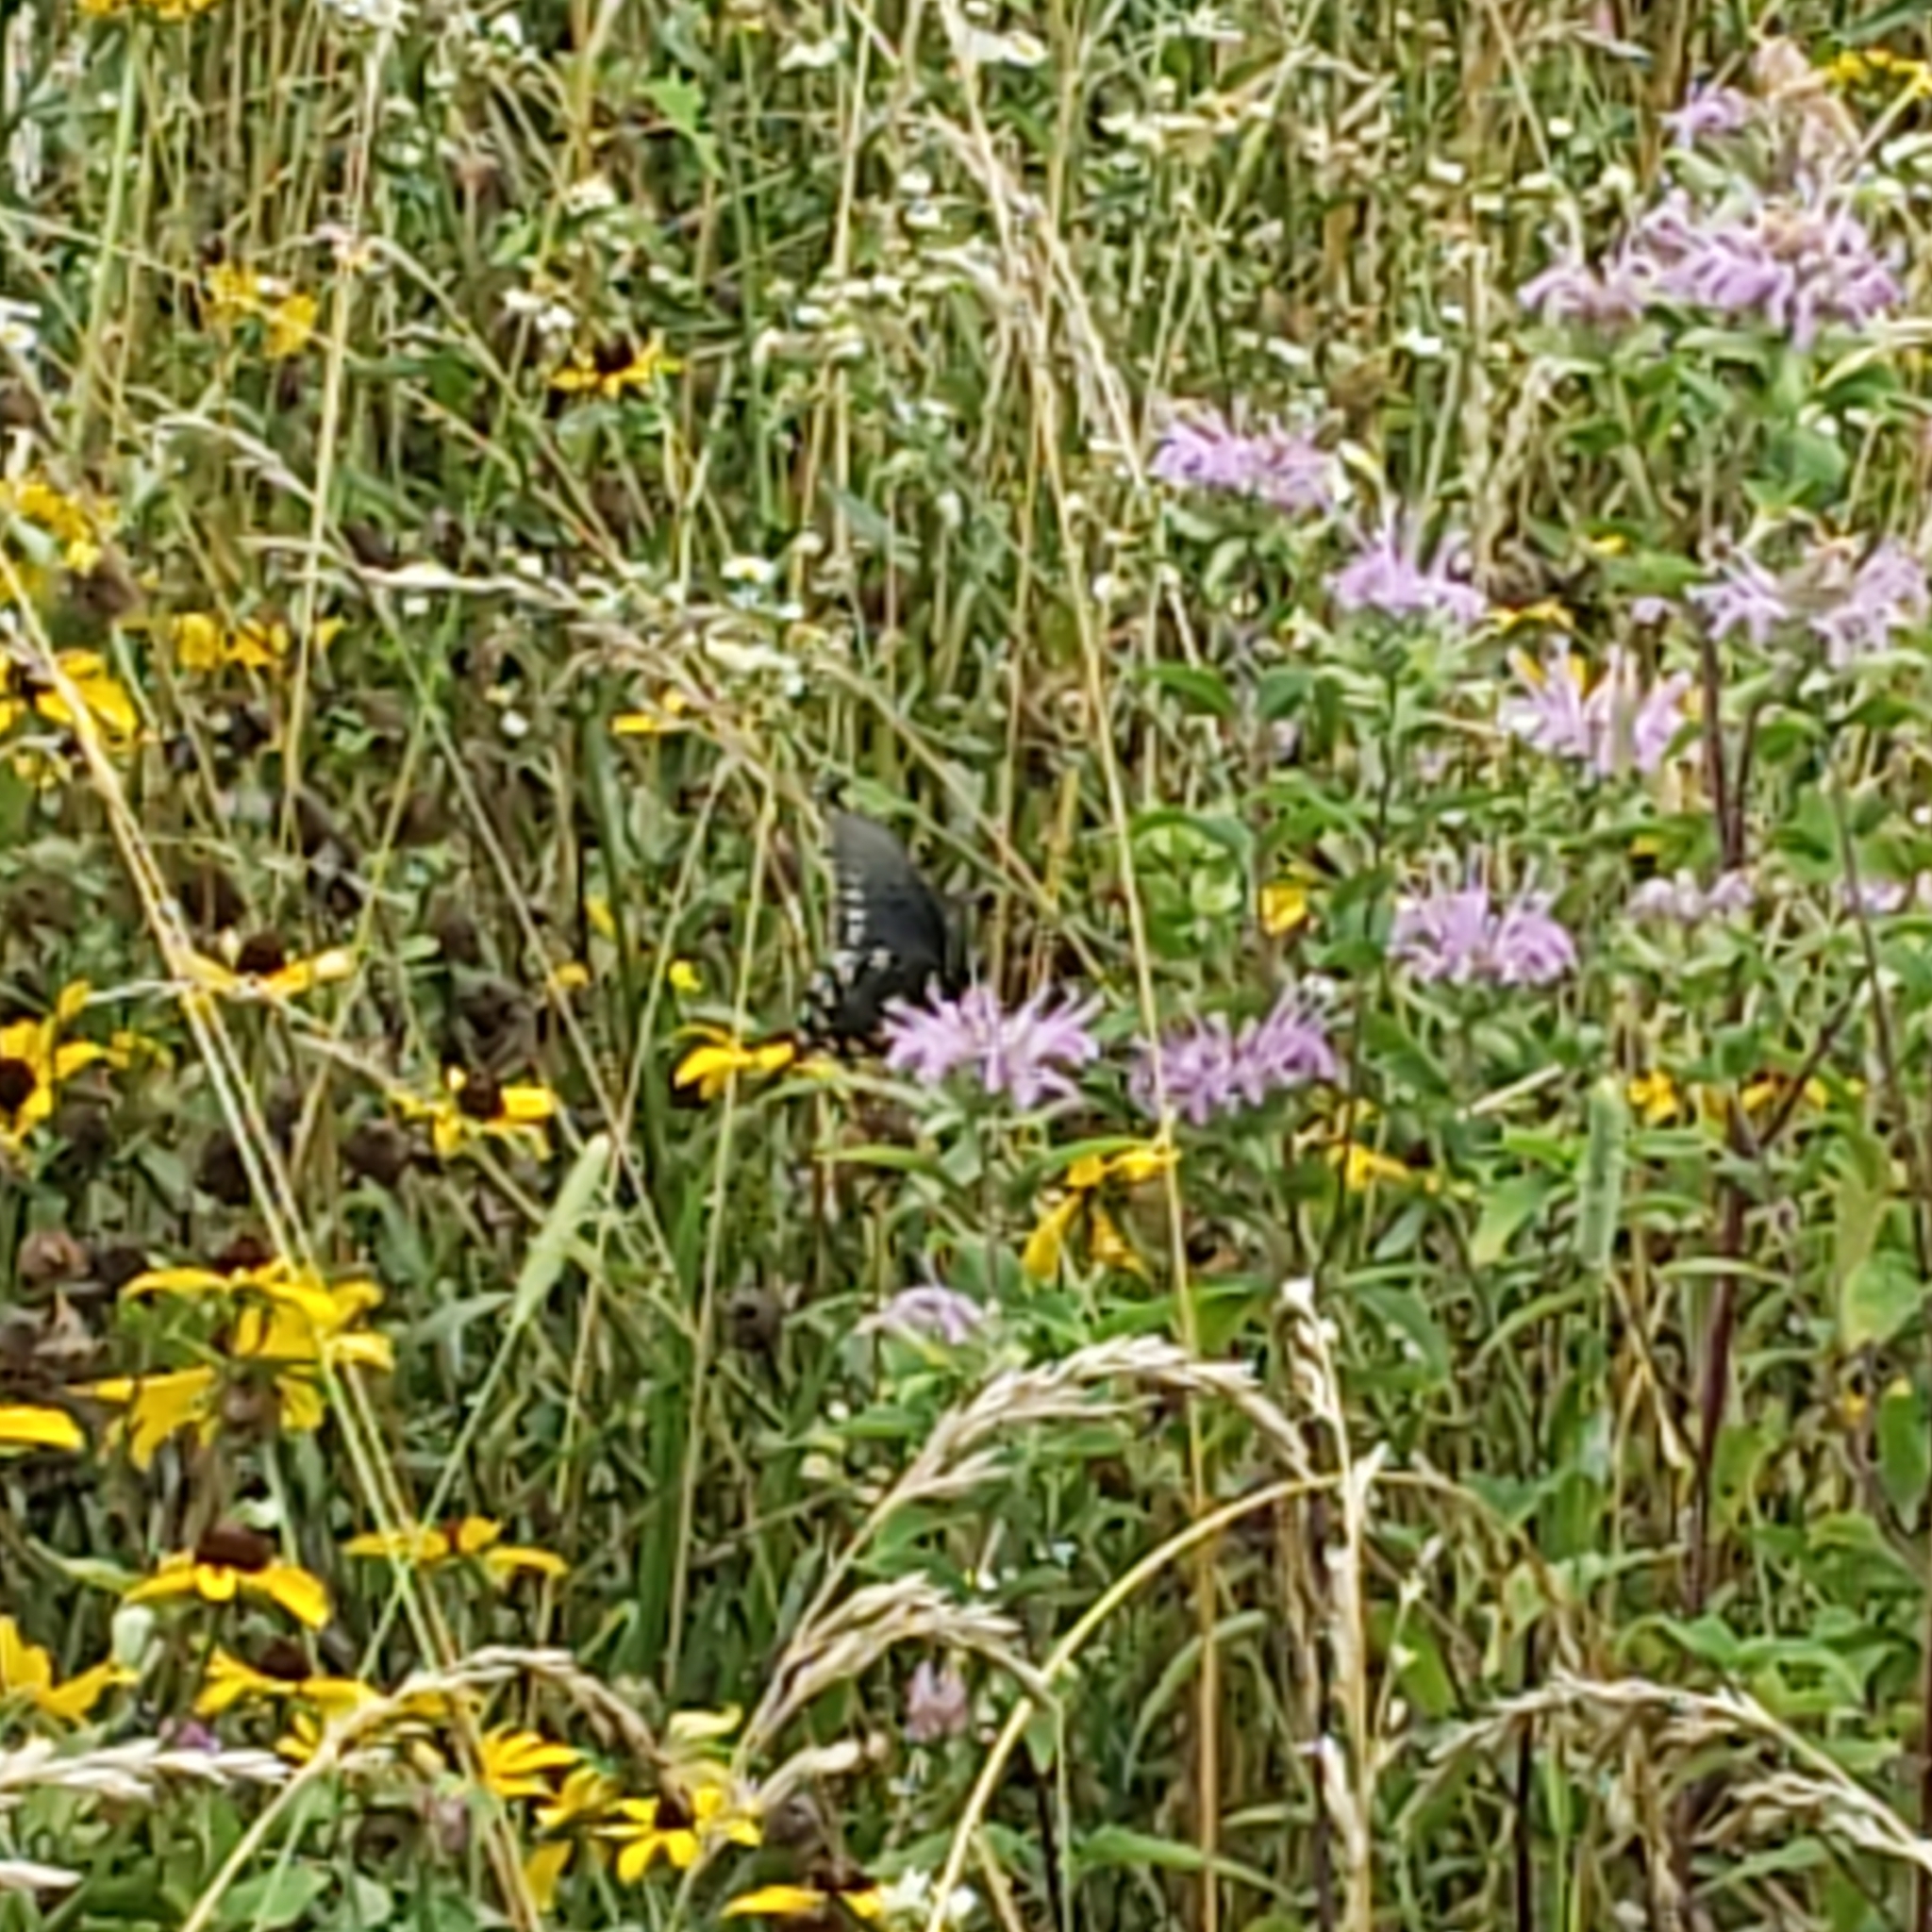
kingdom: Animalia
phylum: Arthropoda
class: Insecta
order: Lepidoptera
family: Papilionidae
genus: Battus
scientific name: Battus philenor
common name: Pipevine swallowtail
